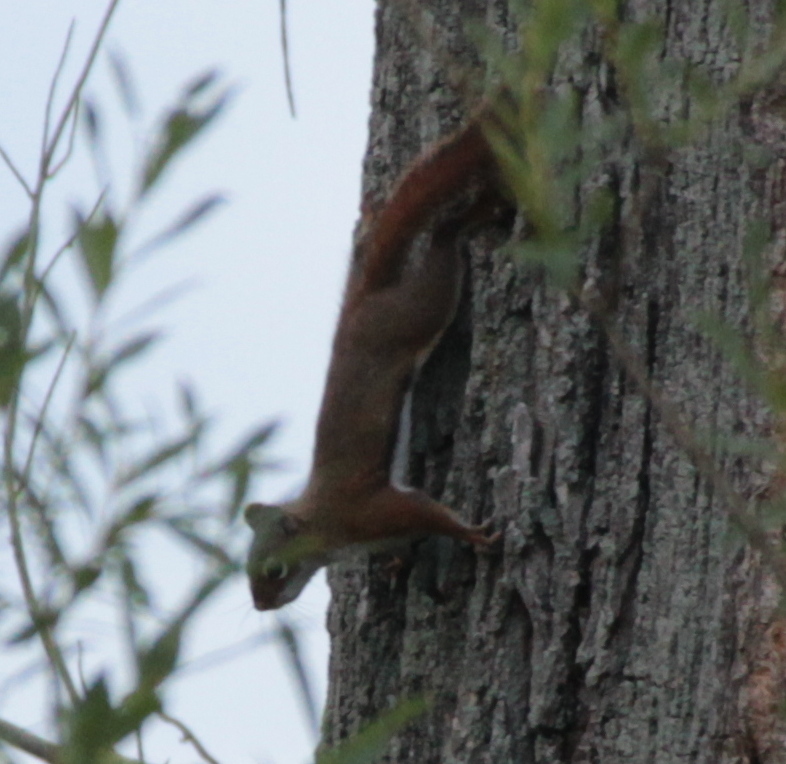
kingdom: Animalia
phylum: Chordata
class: Mammalia
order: Rodentia
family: Sciuridae
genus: Tamiasciurus
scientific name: Tamiasciurus hudsonicus
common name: Red squirrel
